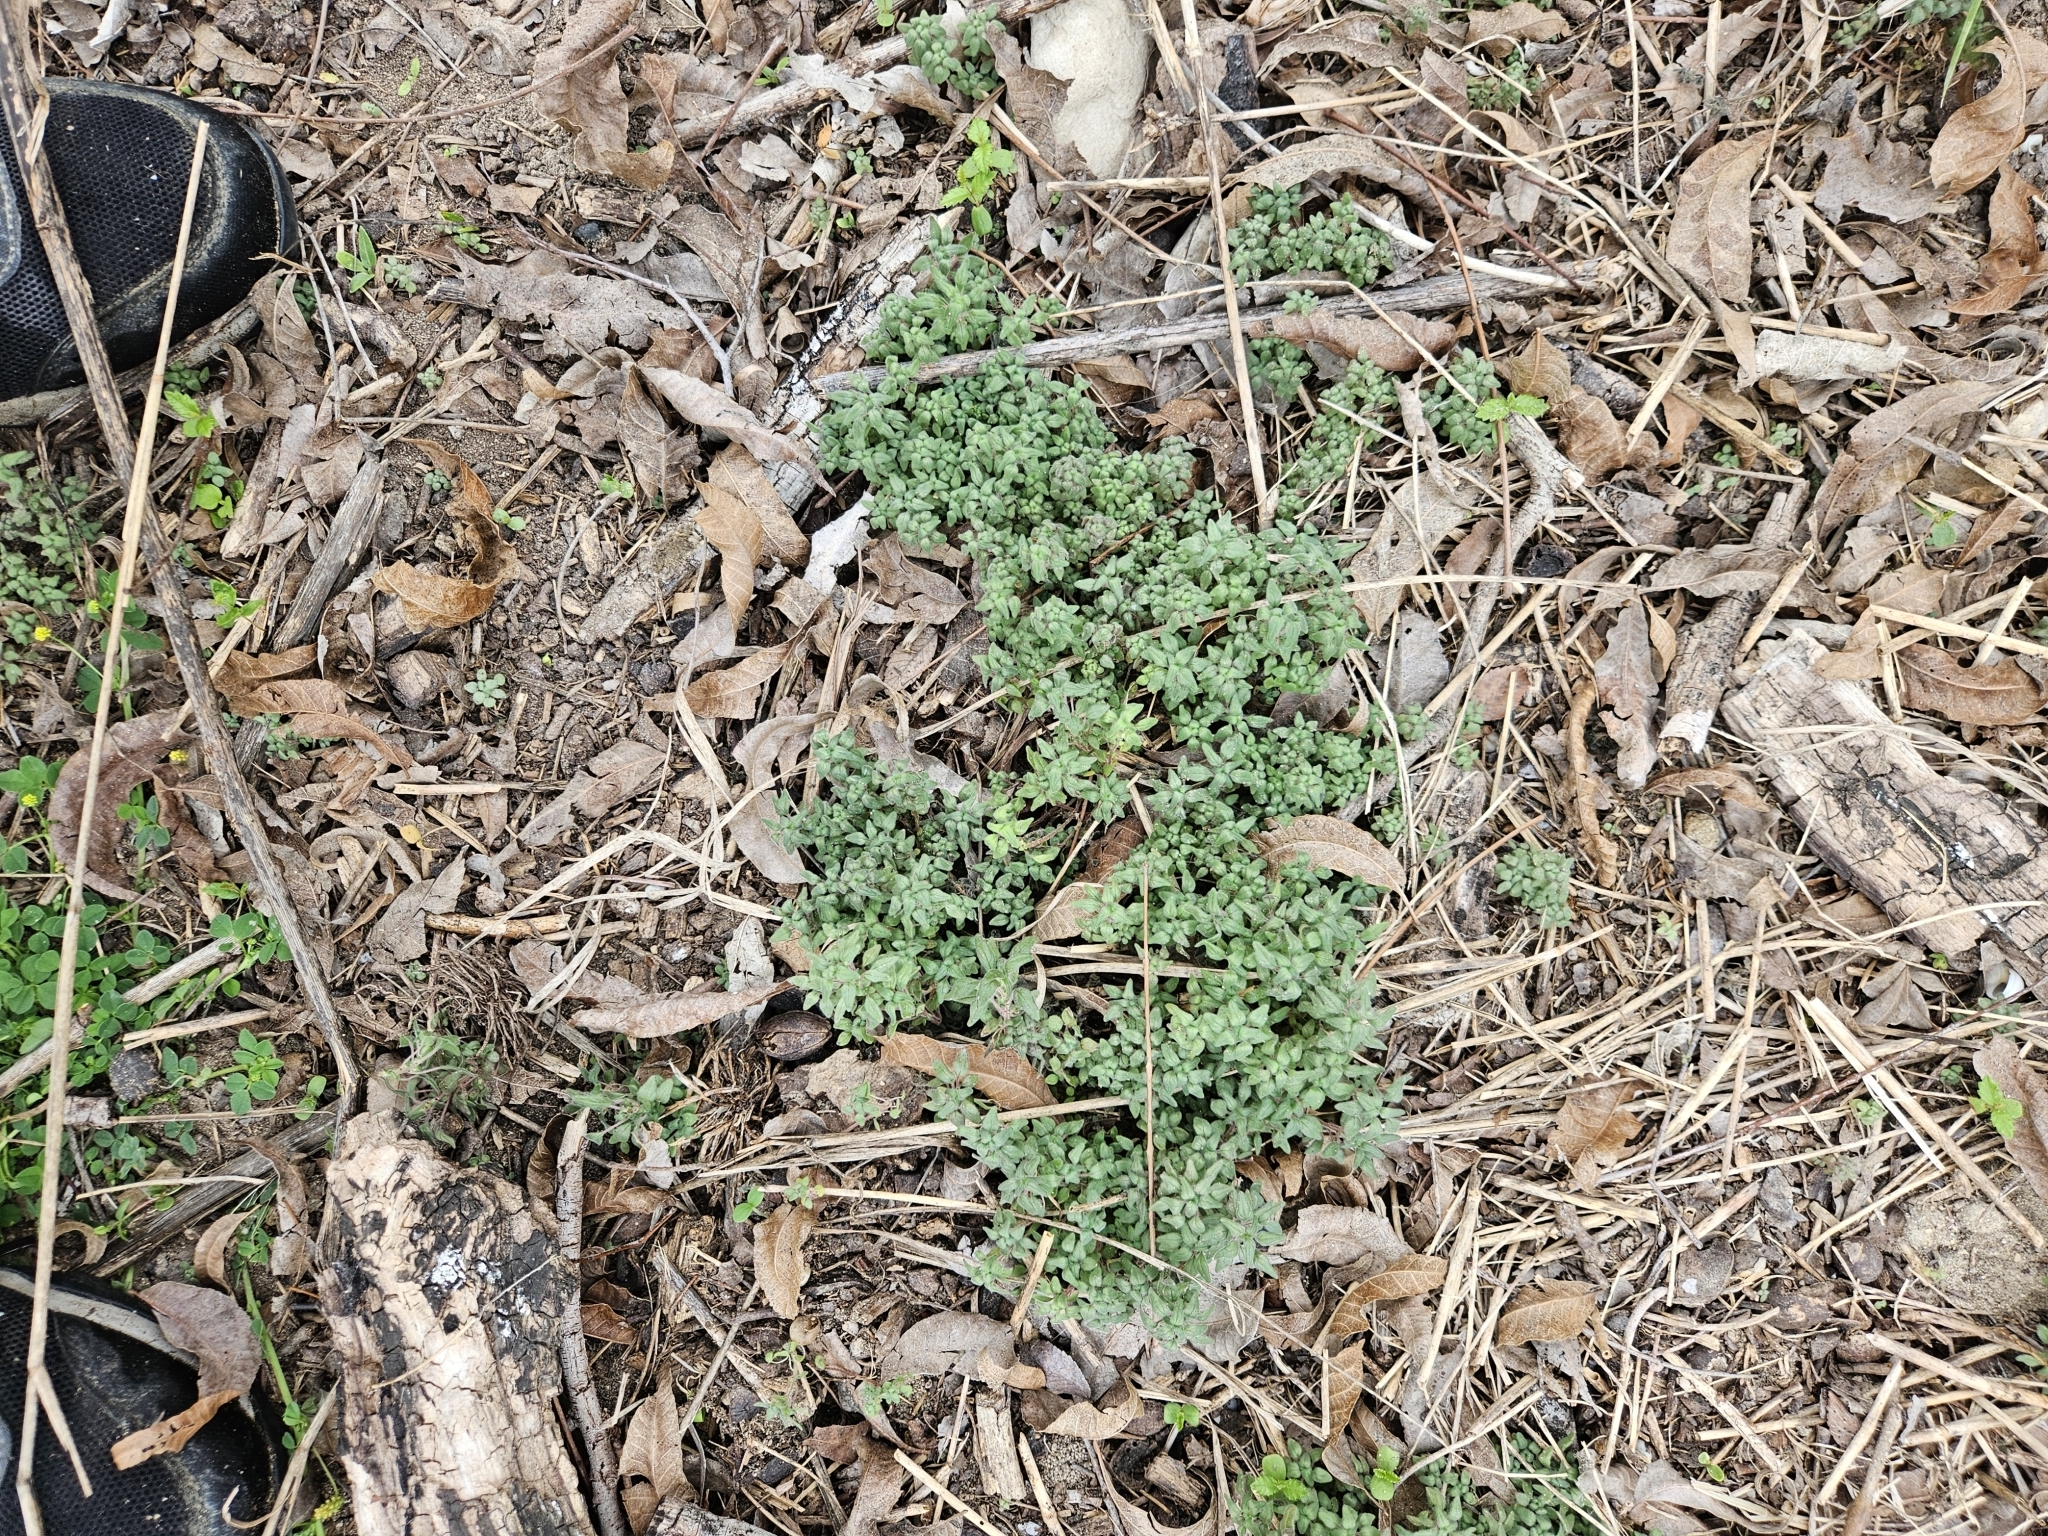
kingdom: Plantae
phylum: Tracheophyta
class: Magnoliopsida
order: Rosales
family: Urticaceae
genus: Parietaria
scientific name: Parietaria pensylvanica
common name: Pennsylvania pellitory
